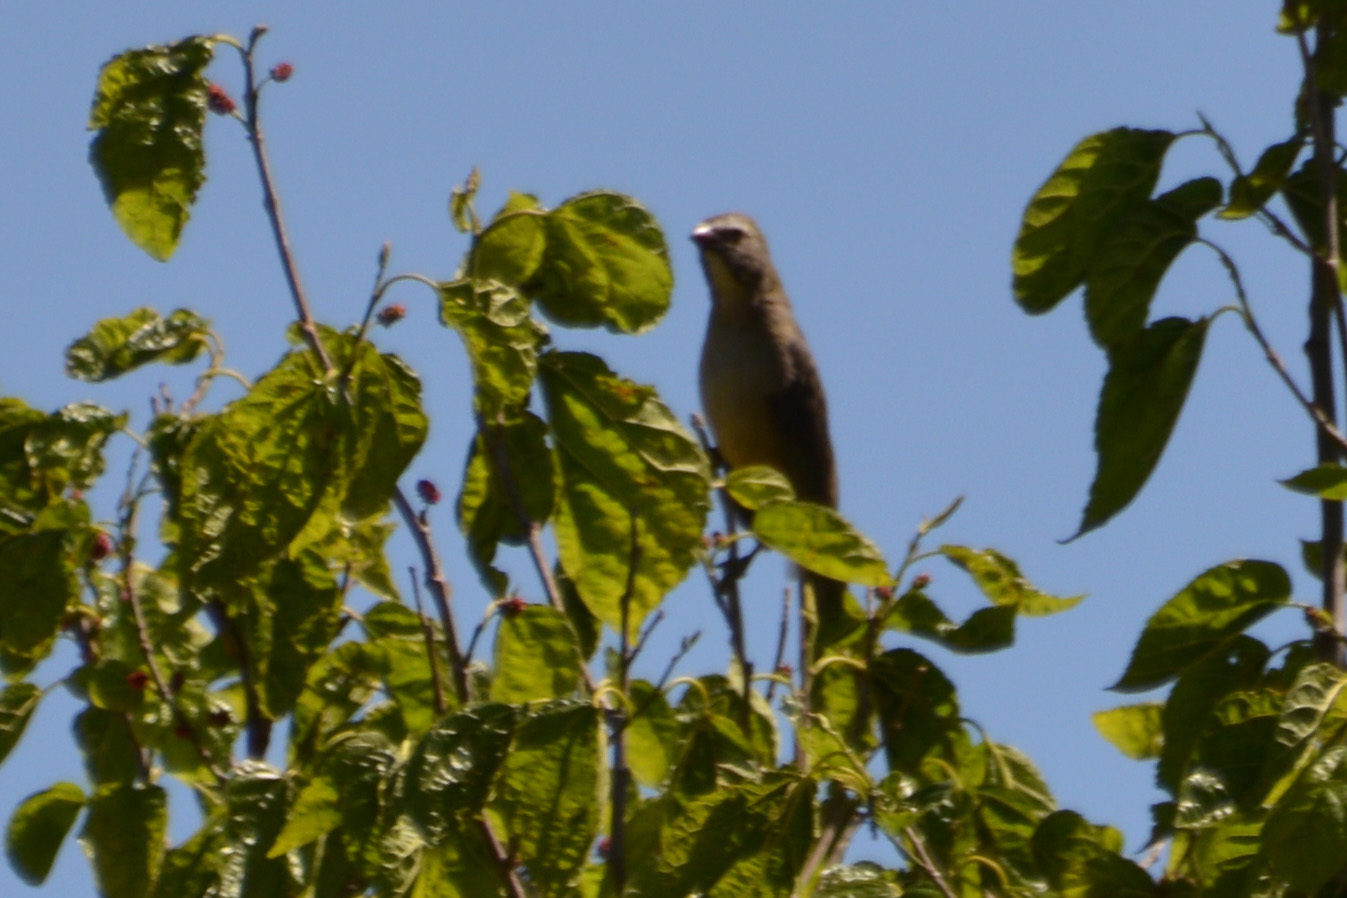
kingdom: Animalia
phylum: Chordata
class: Aves
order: Passeriformes
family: Thraupidae
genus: Saltator
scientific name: Saltator coerulescens
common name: Grayish saltator
